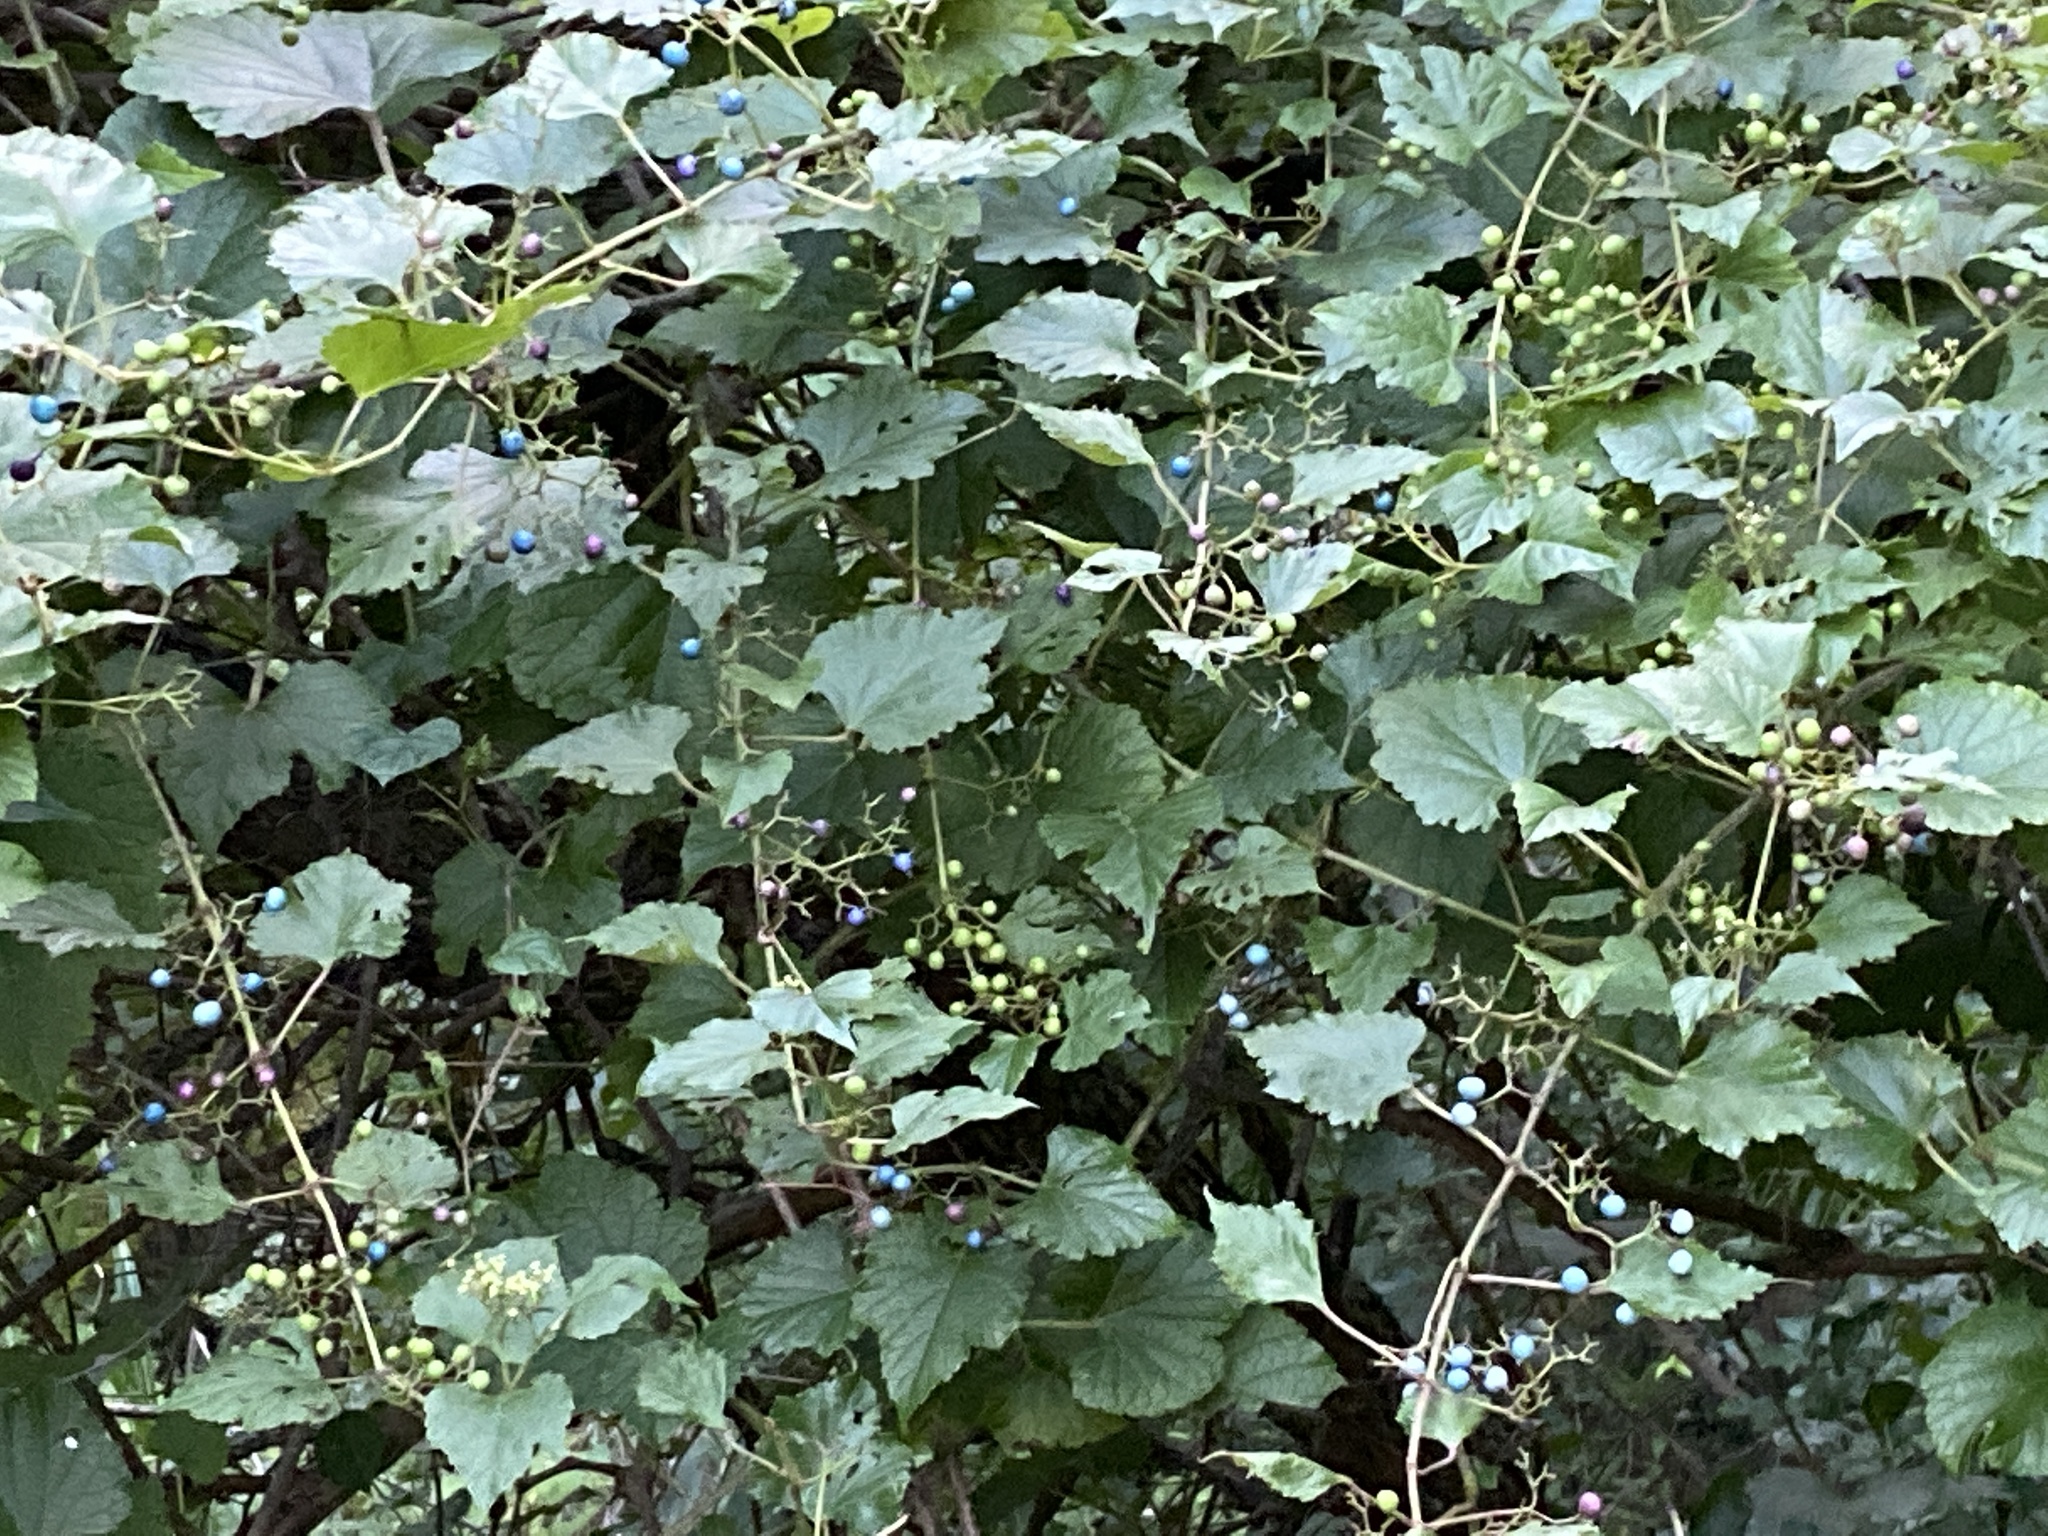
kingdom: Plantae
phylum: Tracheophyta
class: Magnoliopsida
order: Vitales
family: Vitaceae
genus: Ampelopsis
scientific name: Ampelopsis glandulosa
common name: Amur peppervine
